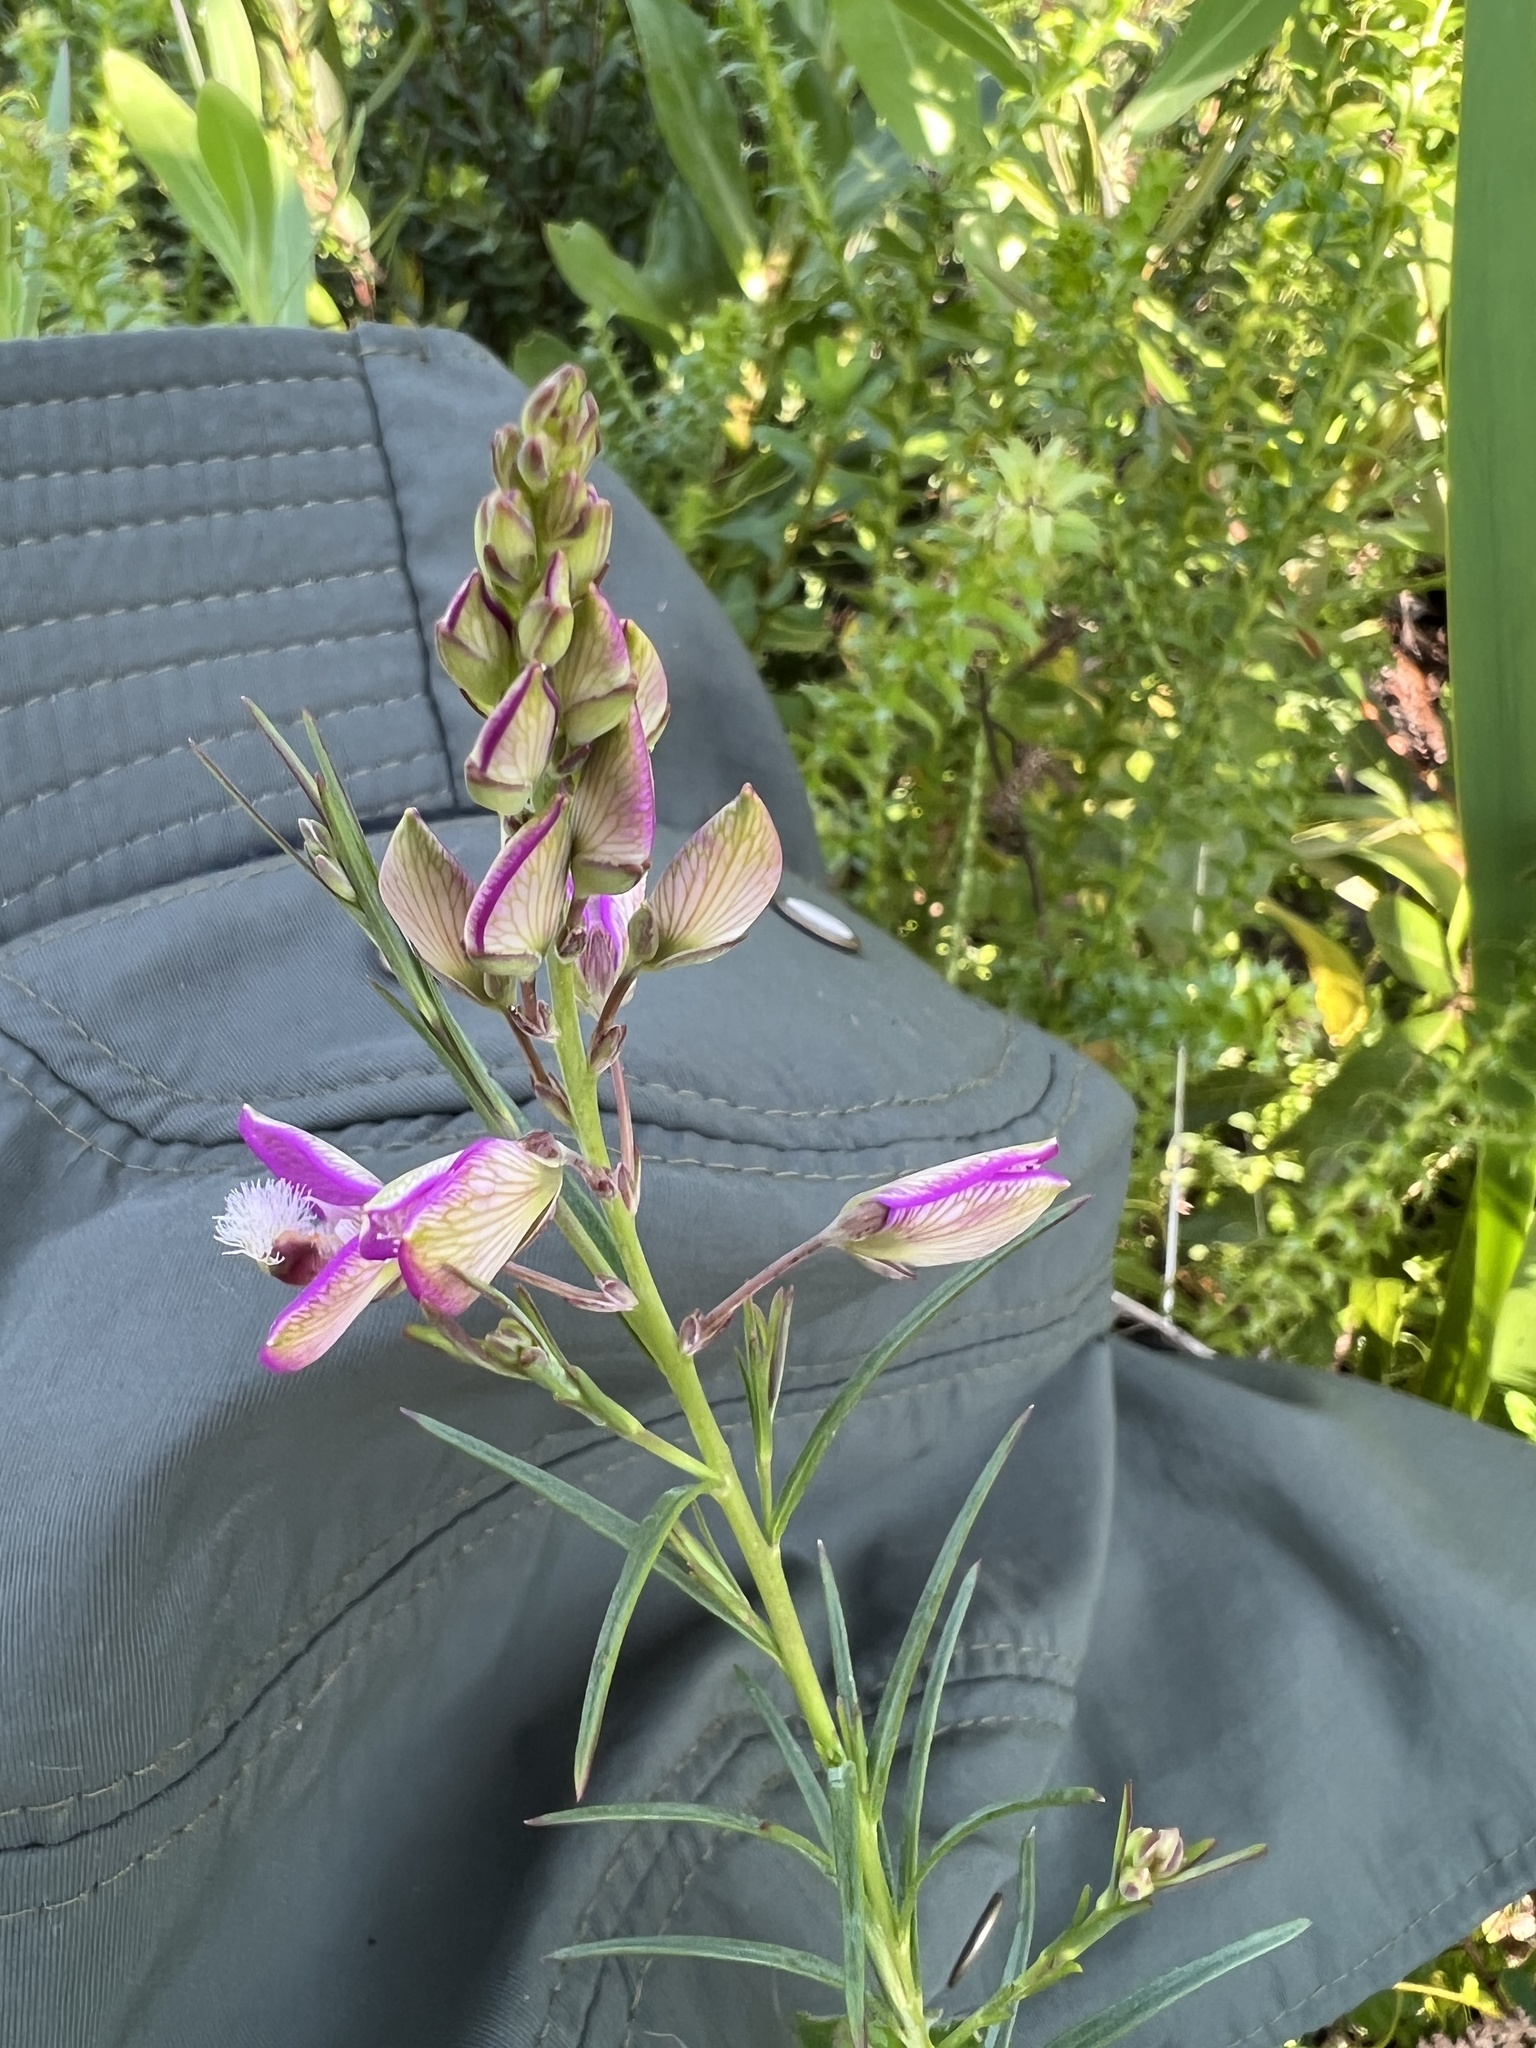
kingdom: Plantae
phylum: Tracheophyta
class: Magnoliopsida
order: Fabales
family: Polygalaceae
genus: Polygala
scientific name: Polygala bracteolata
